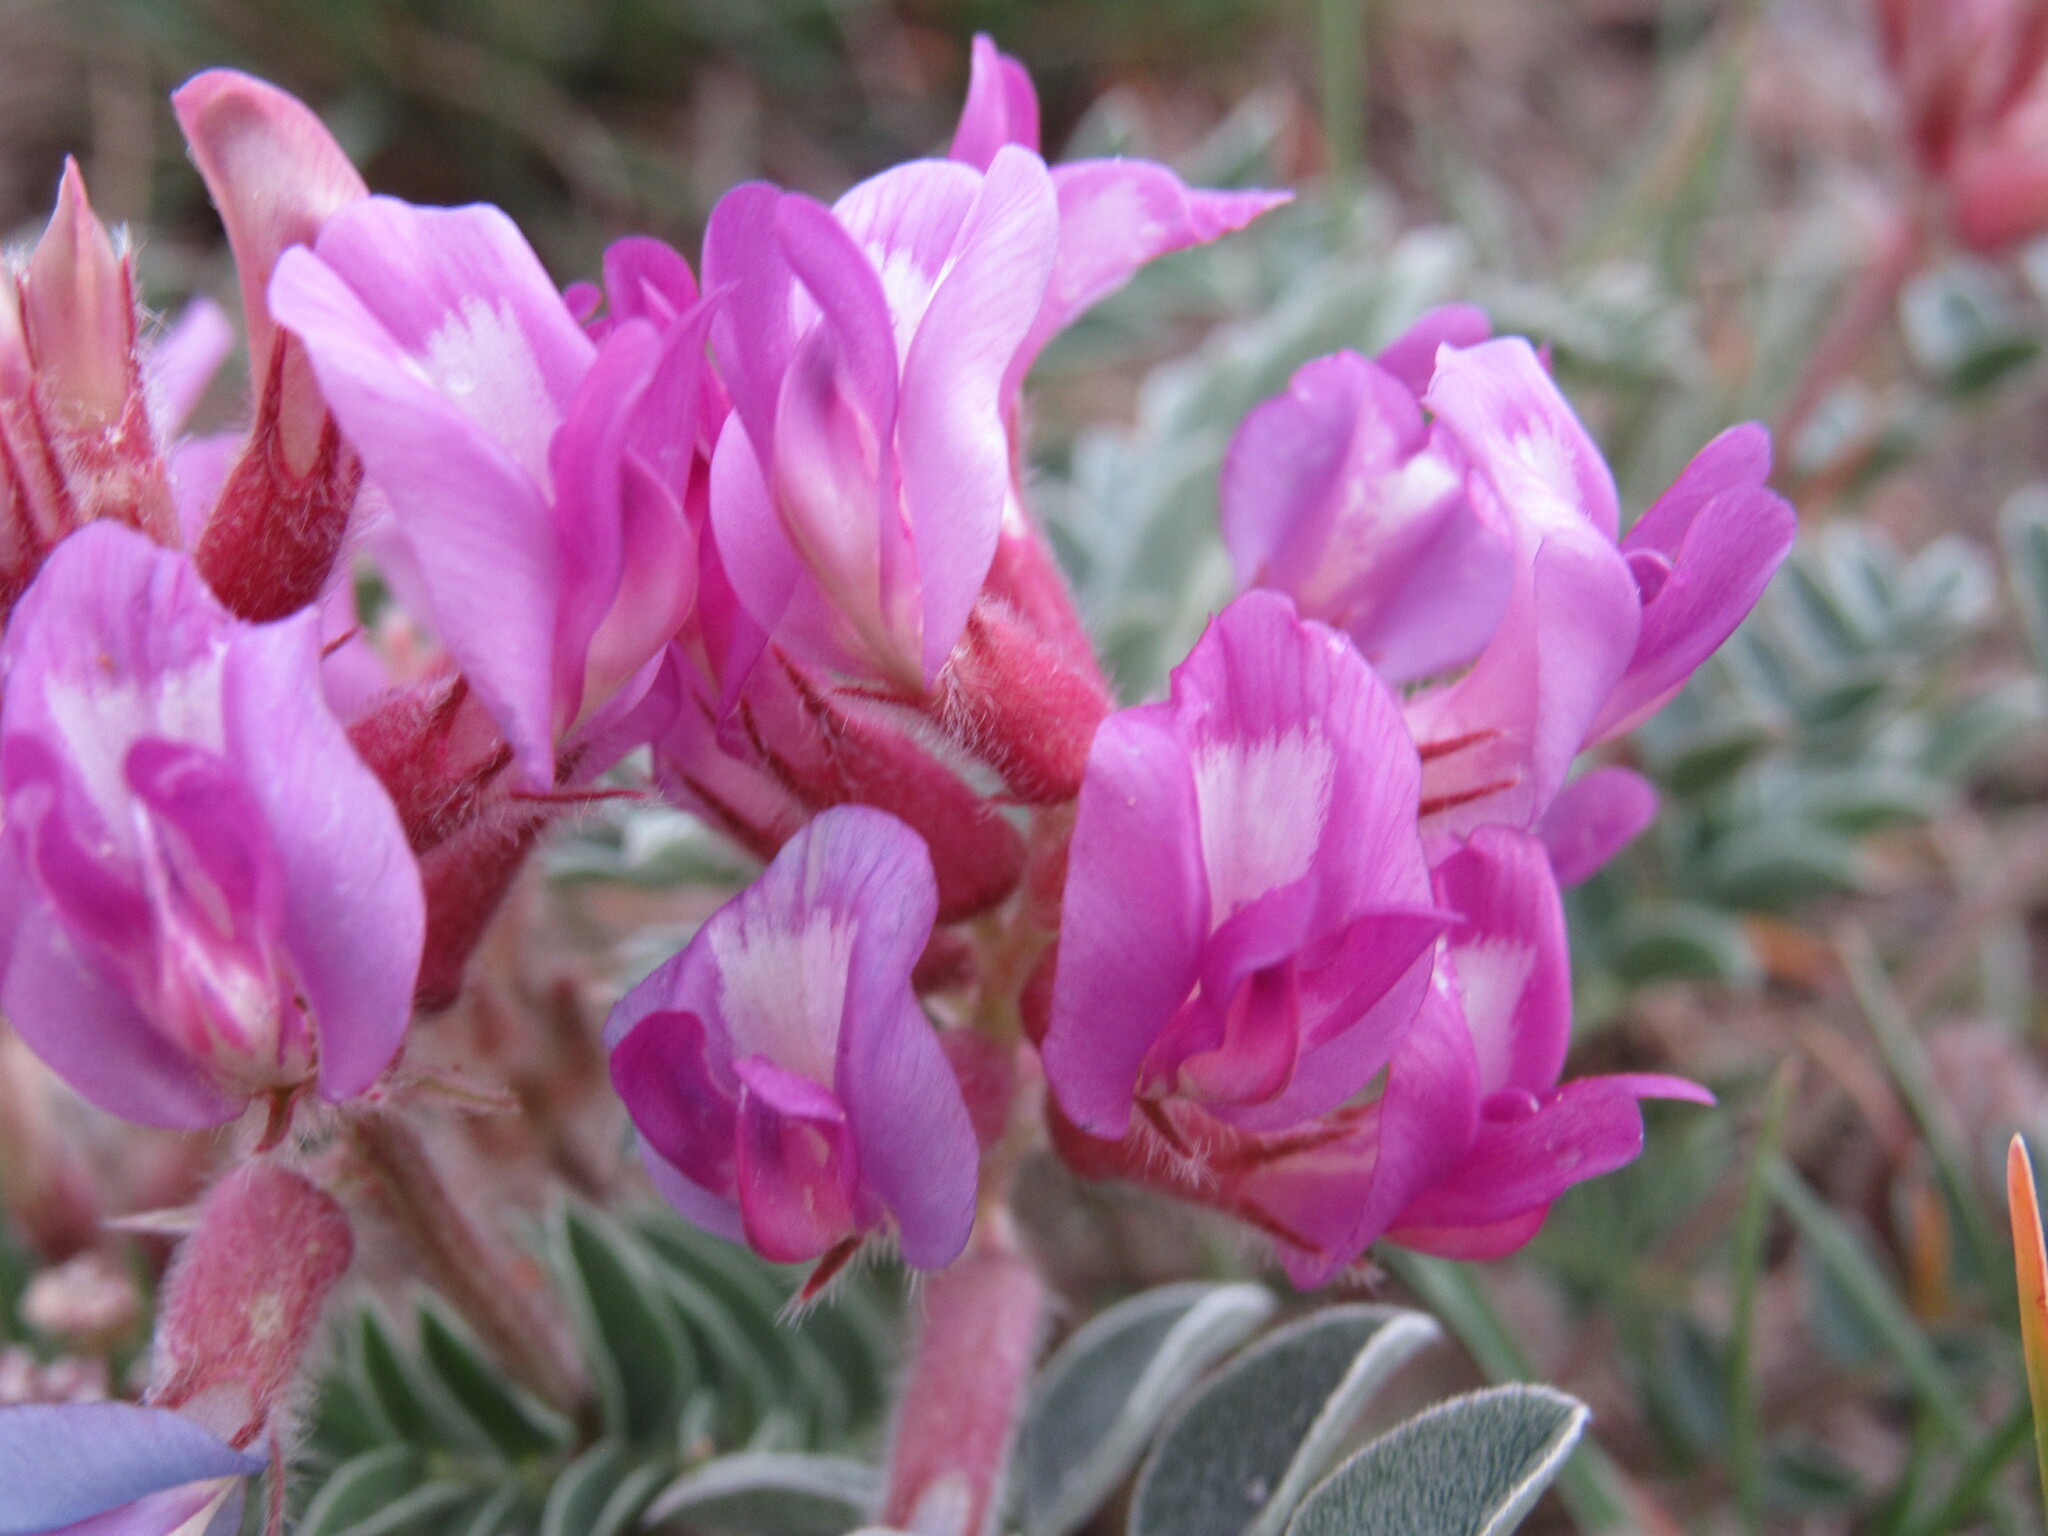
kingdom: Plantae
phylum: Tracheophyta
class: Magnoliopsida
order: Fabales
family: Fabaceae
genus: Astragalus
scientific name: Astragalus shortianus
